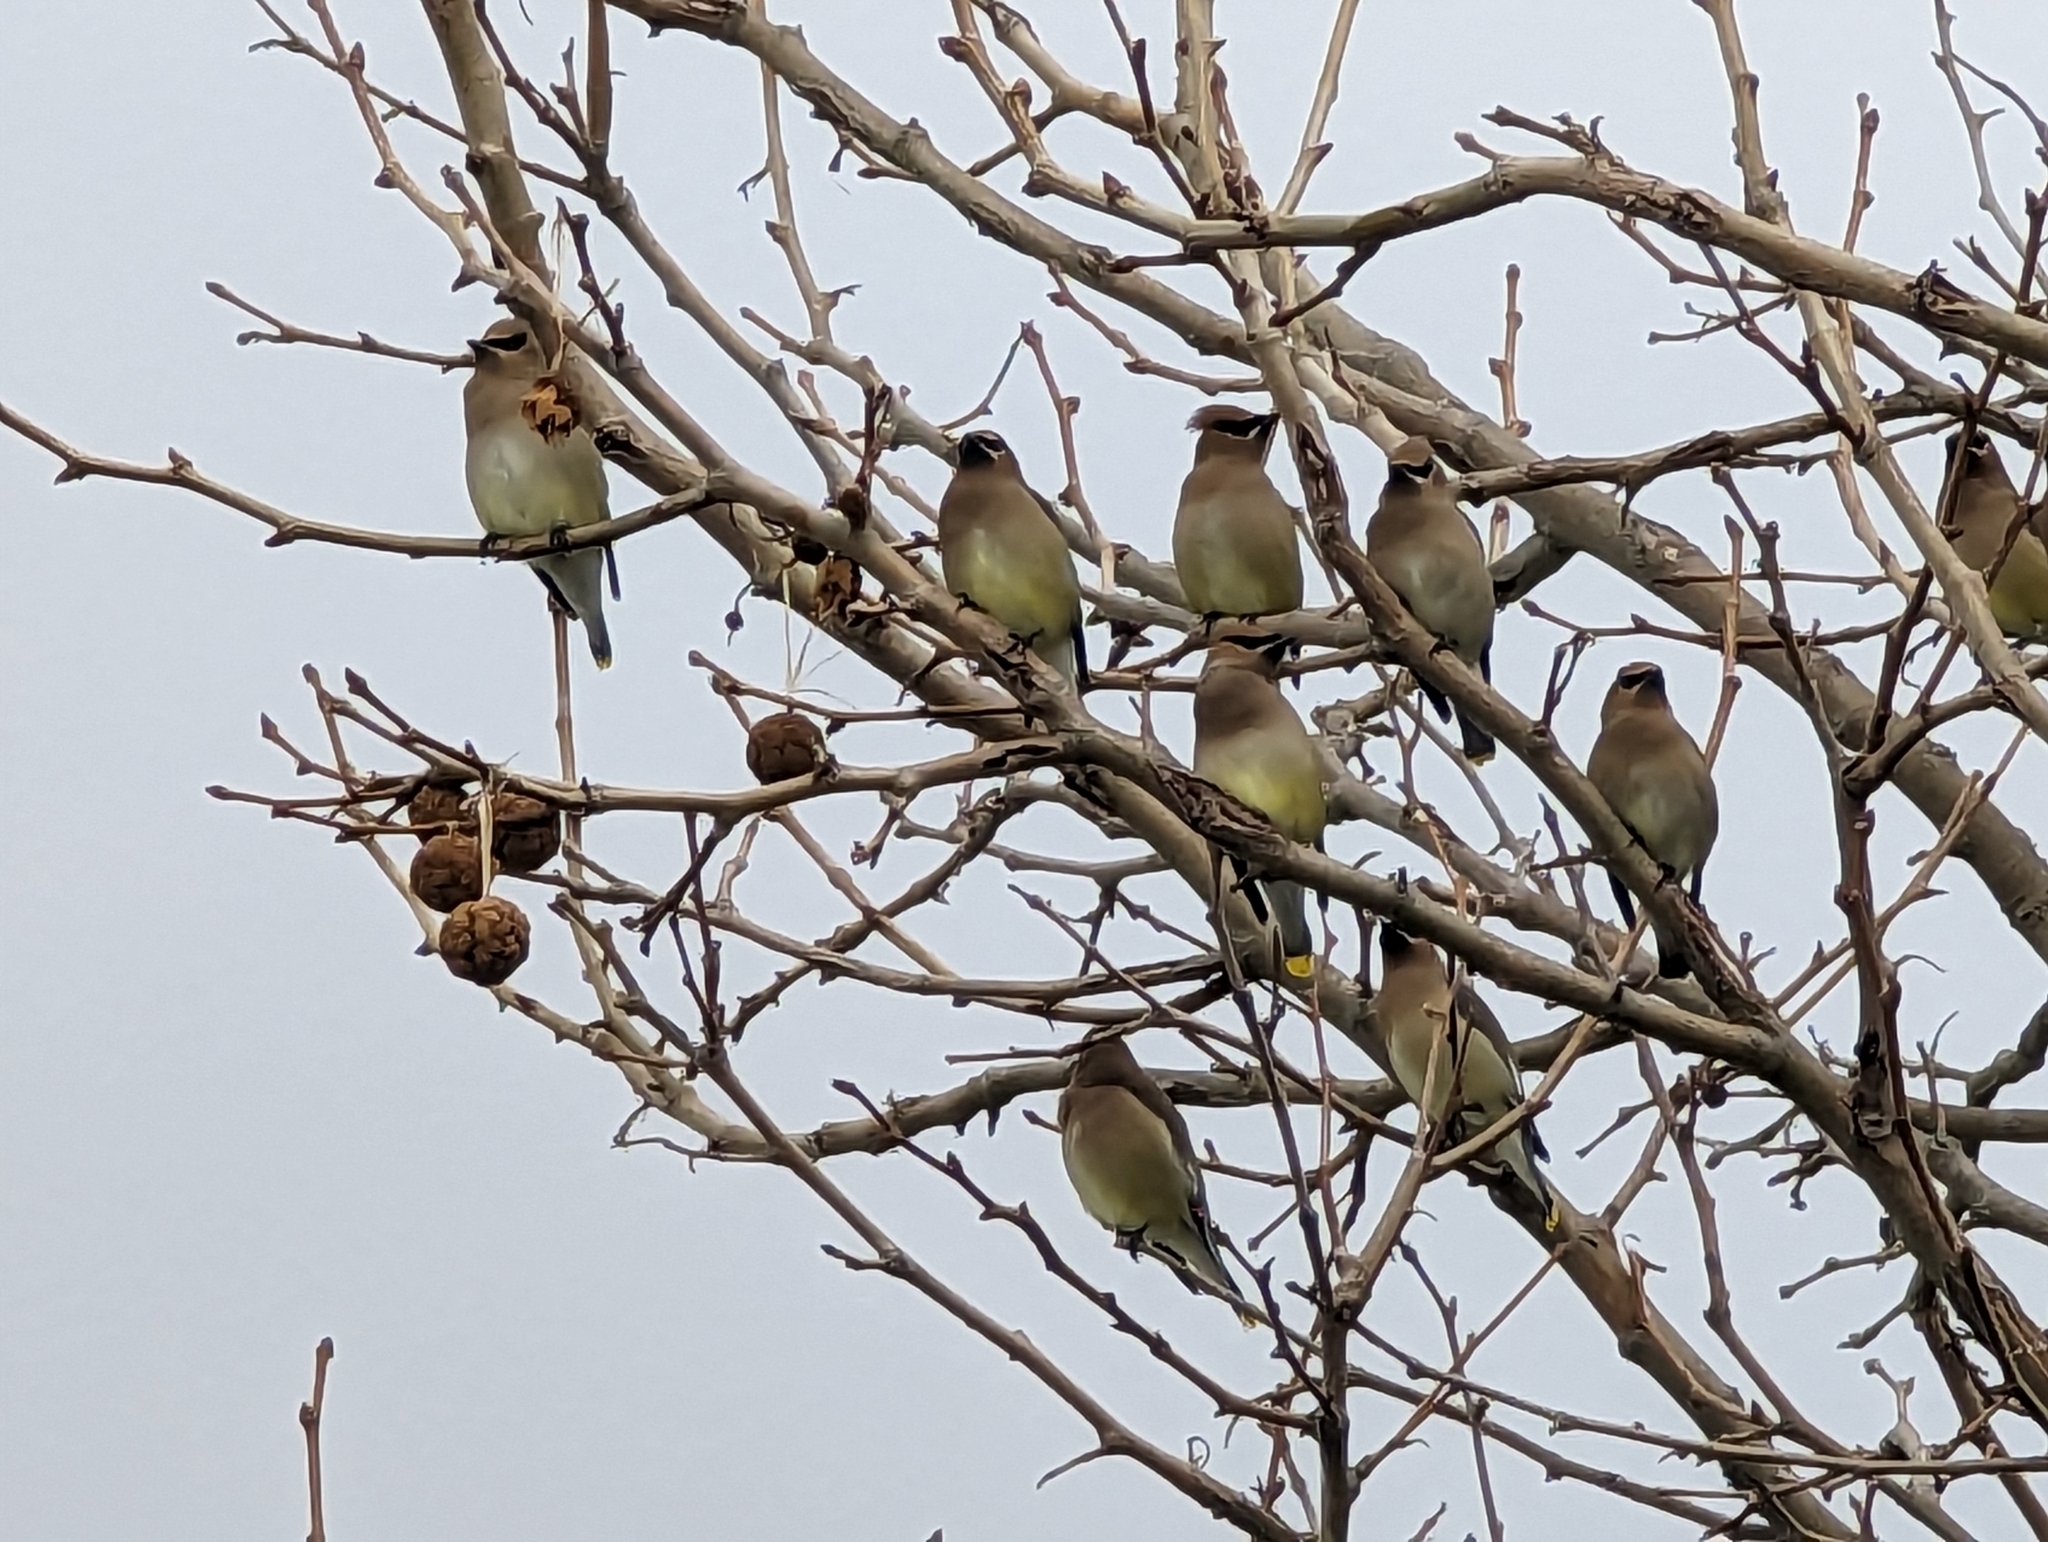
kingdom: Animalia
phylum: Chordata
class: Aves
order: Passeriformes
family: Bombycillidae
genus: Bombycilla
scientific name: Bombycilla cedrorum
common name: Cedar waxwing
